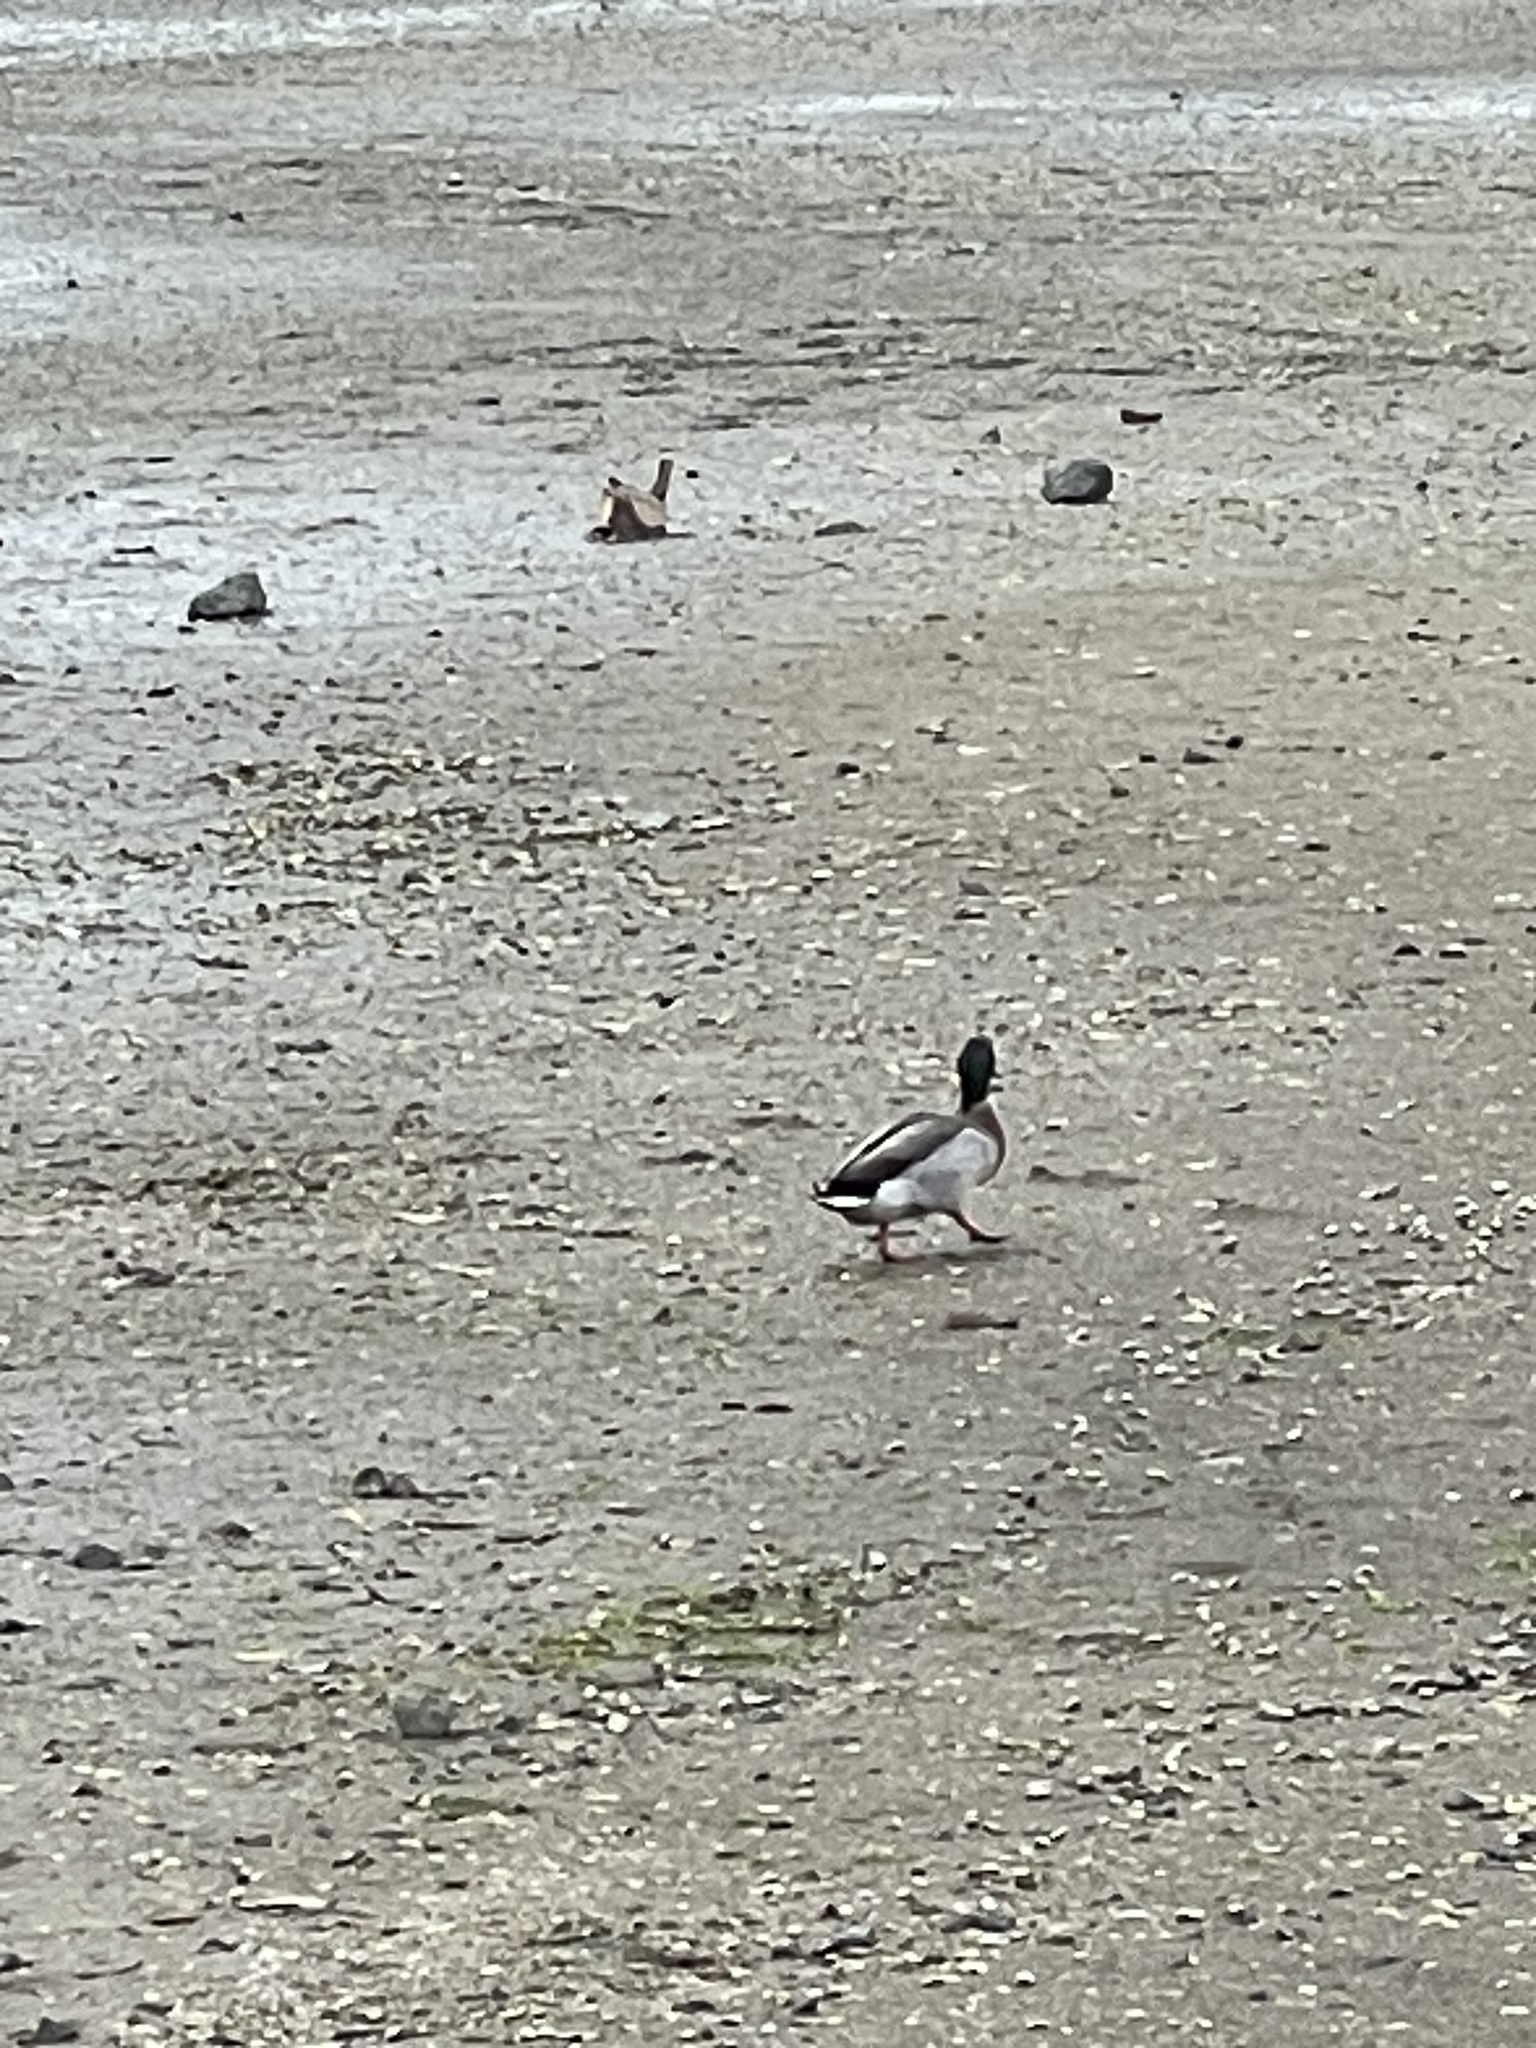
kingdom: Animalia
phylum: Chordata
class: Aves
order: Anseriformes
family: Anatidae
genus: Anas
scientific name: Anas platyrhynchos
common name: Mallard
